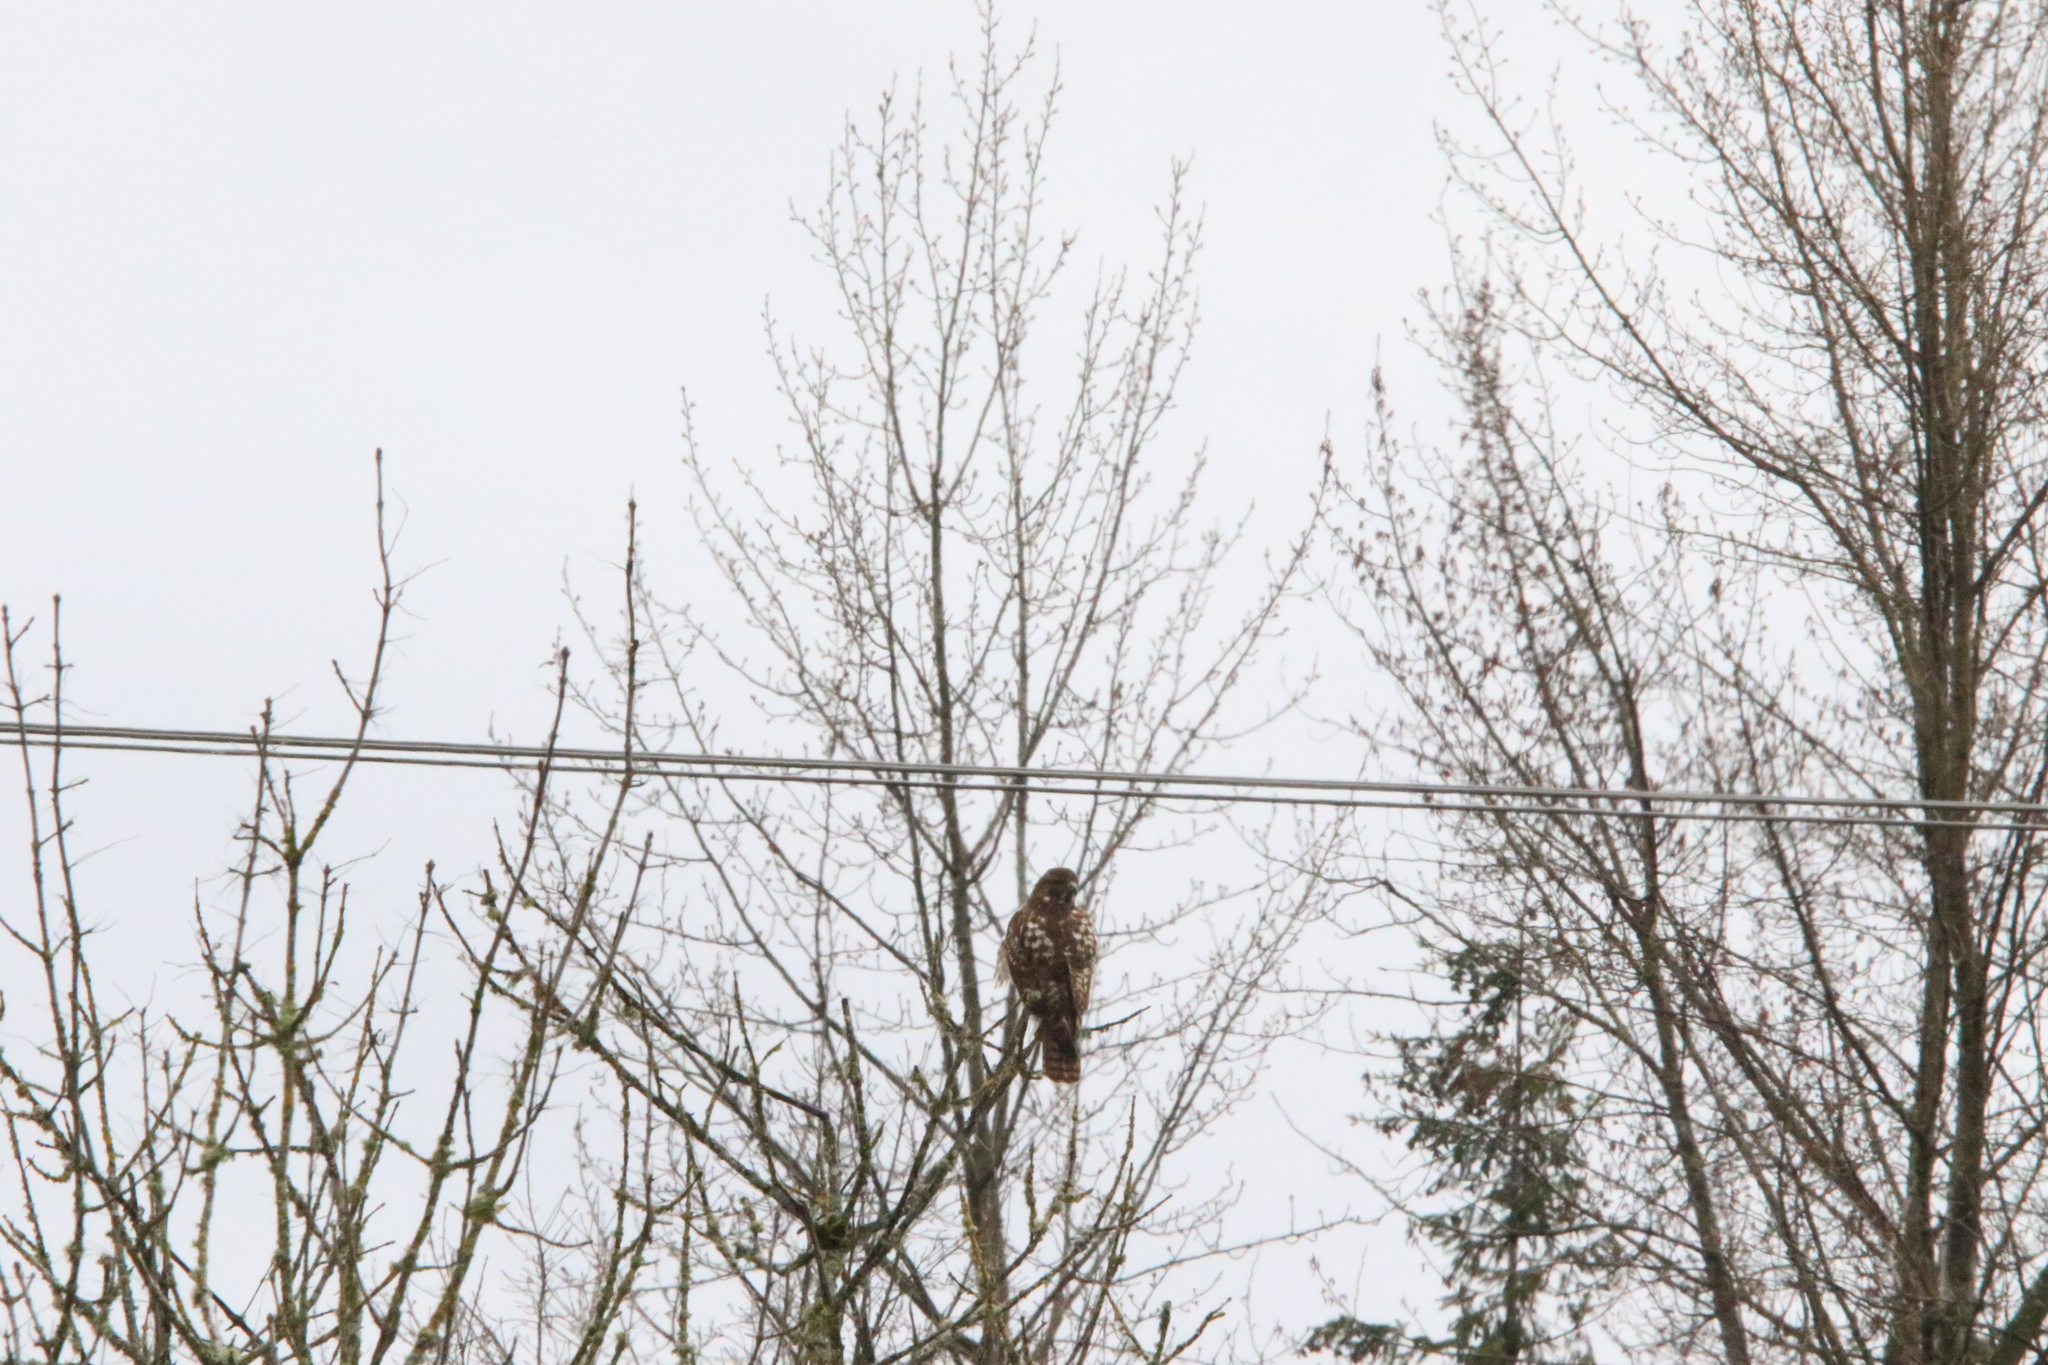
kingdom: Animalia
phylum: Chordata
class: Aves
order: Accipitriformes
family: Accipitridae
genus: Buteo
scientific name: Buteo jamaicensis
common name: Red-tailed hawk
